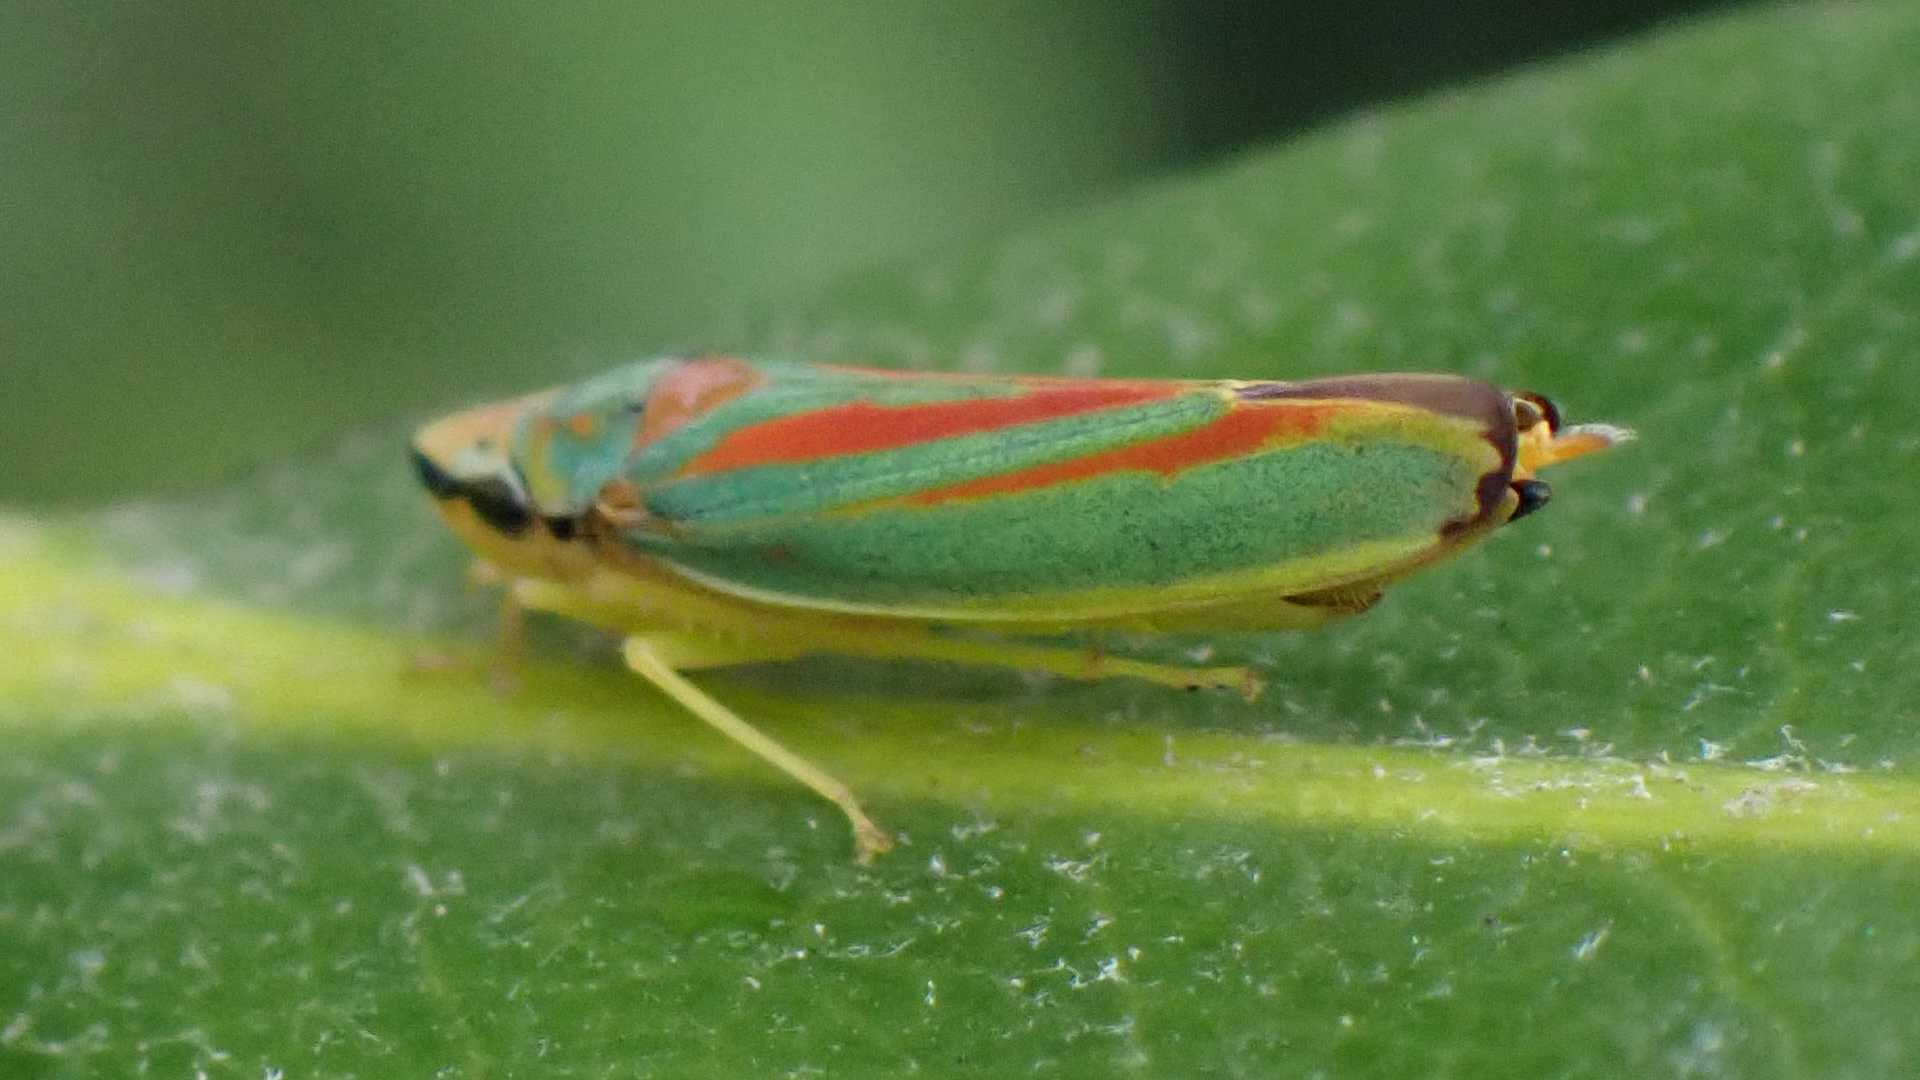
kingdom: Animalia
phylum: Arthropoda
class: Insecta
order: Hemiptera
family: Cicadellidae
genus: Graphocephala
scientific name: Graphocephala fennahi
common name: Rhododendron leafhopper
